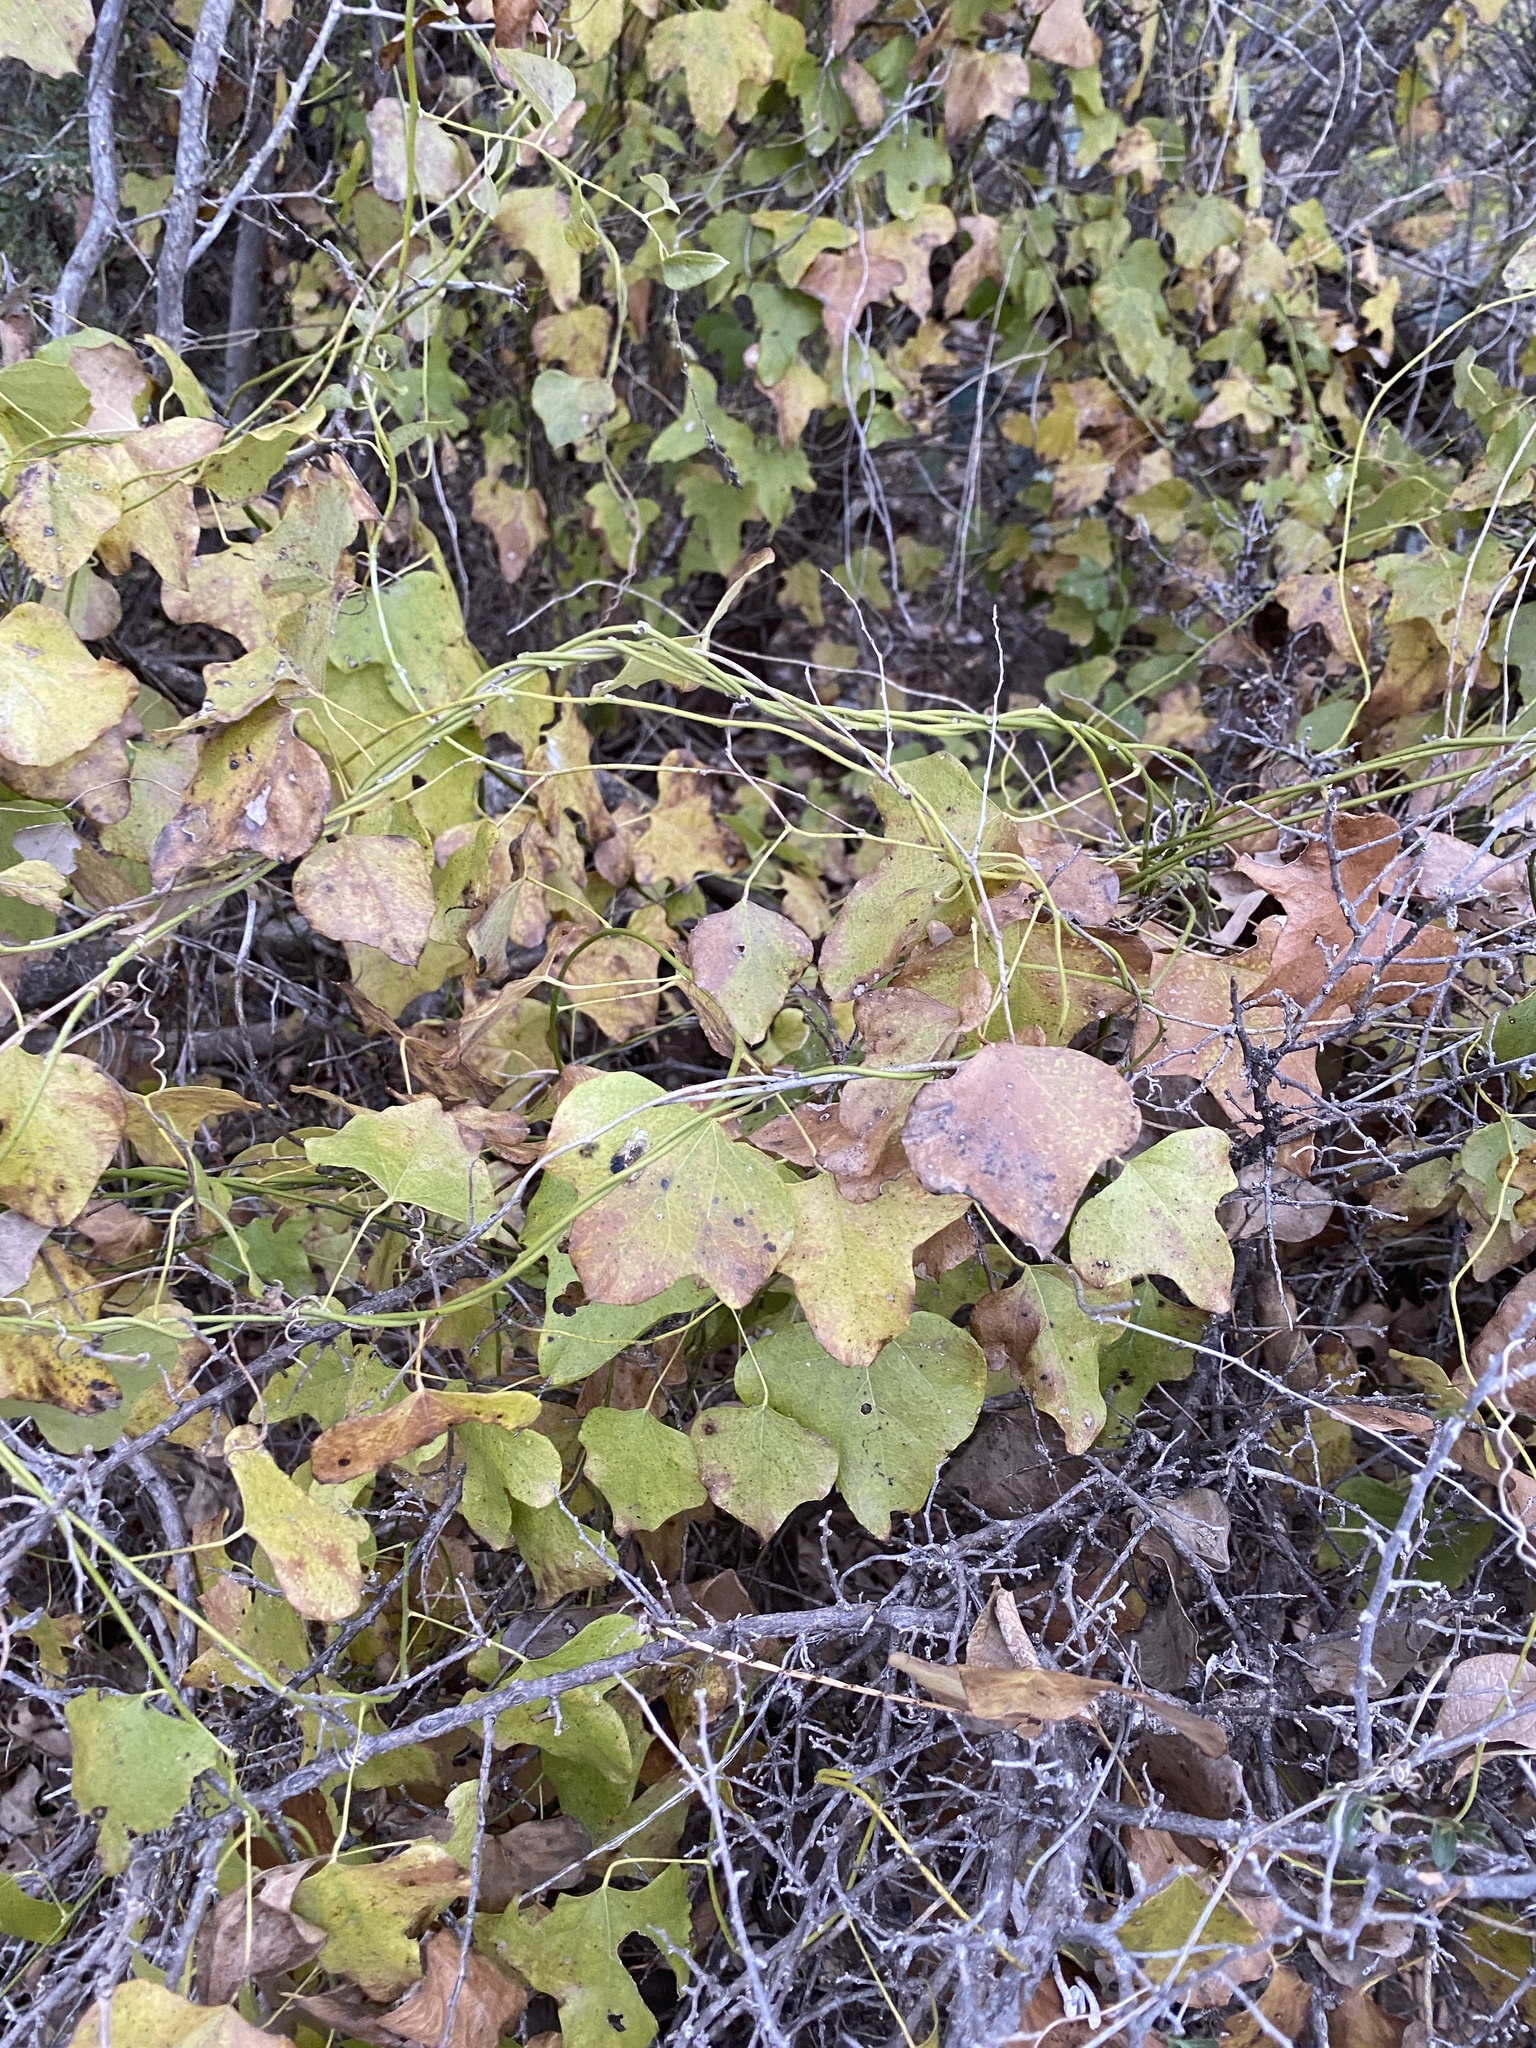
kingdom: Plantae
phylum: Tracheophyta
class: Magnoliopsida
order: Ranunculales
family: Menispermaceae
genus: Cocculus
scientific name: Cocculus carolinus
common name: Carolina moonseed
